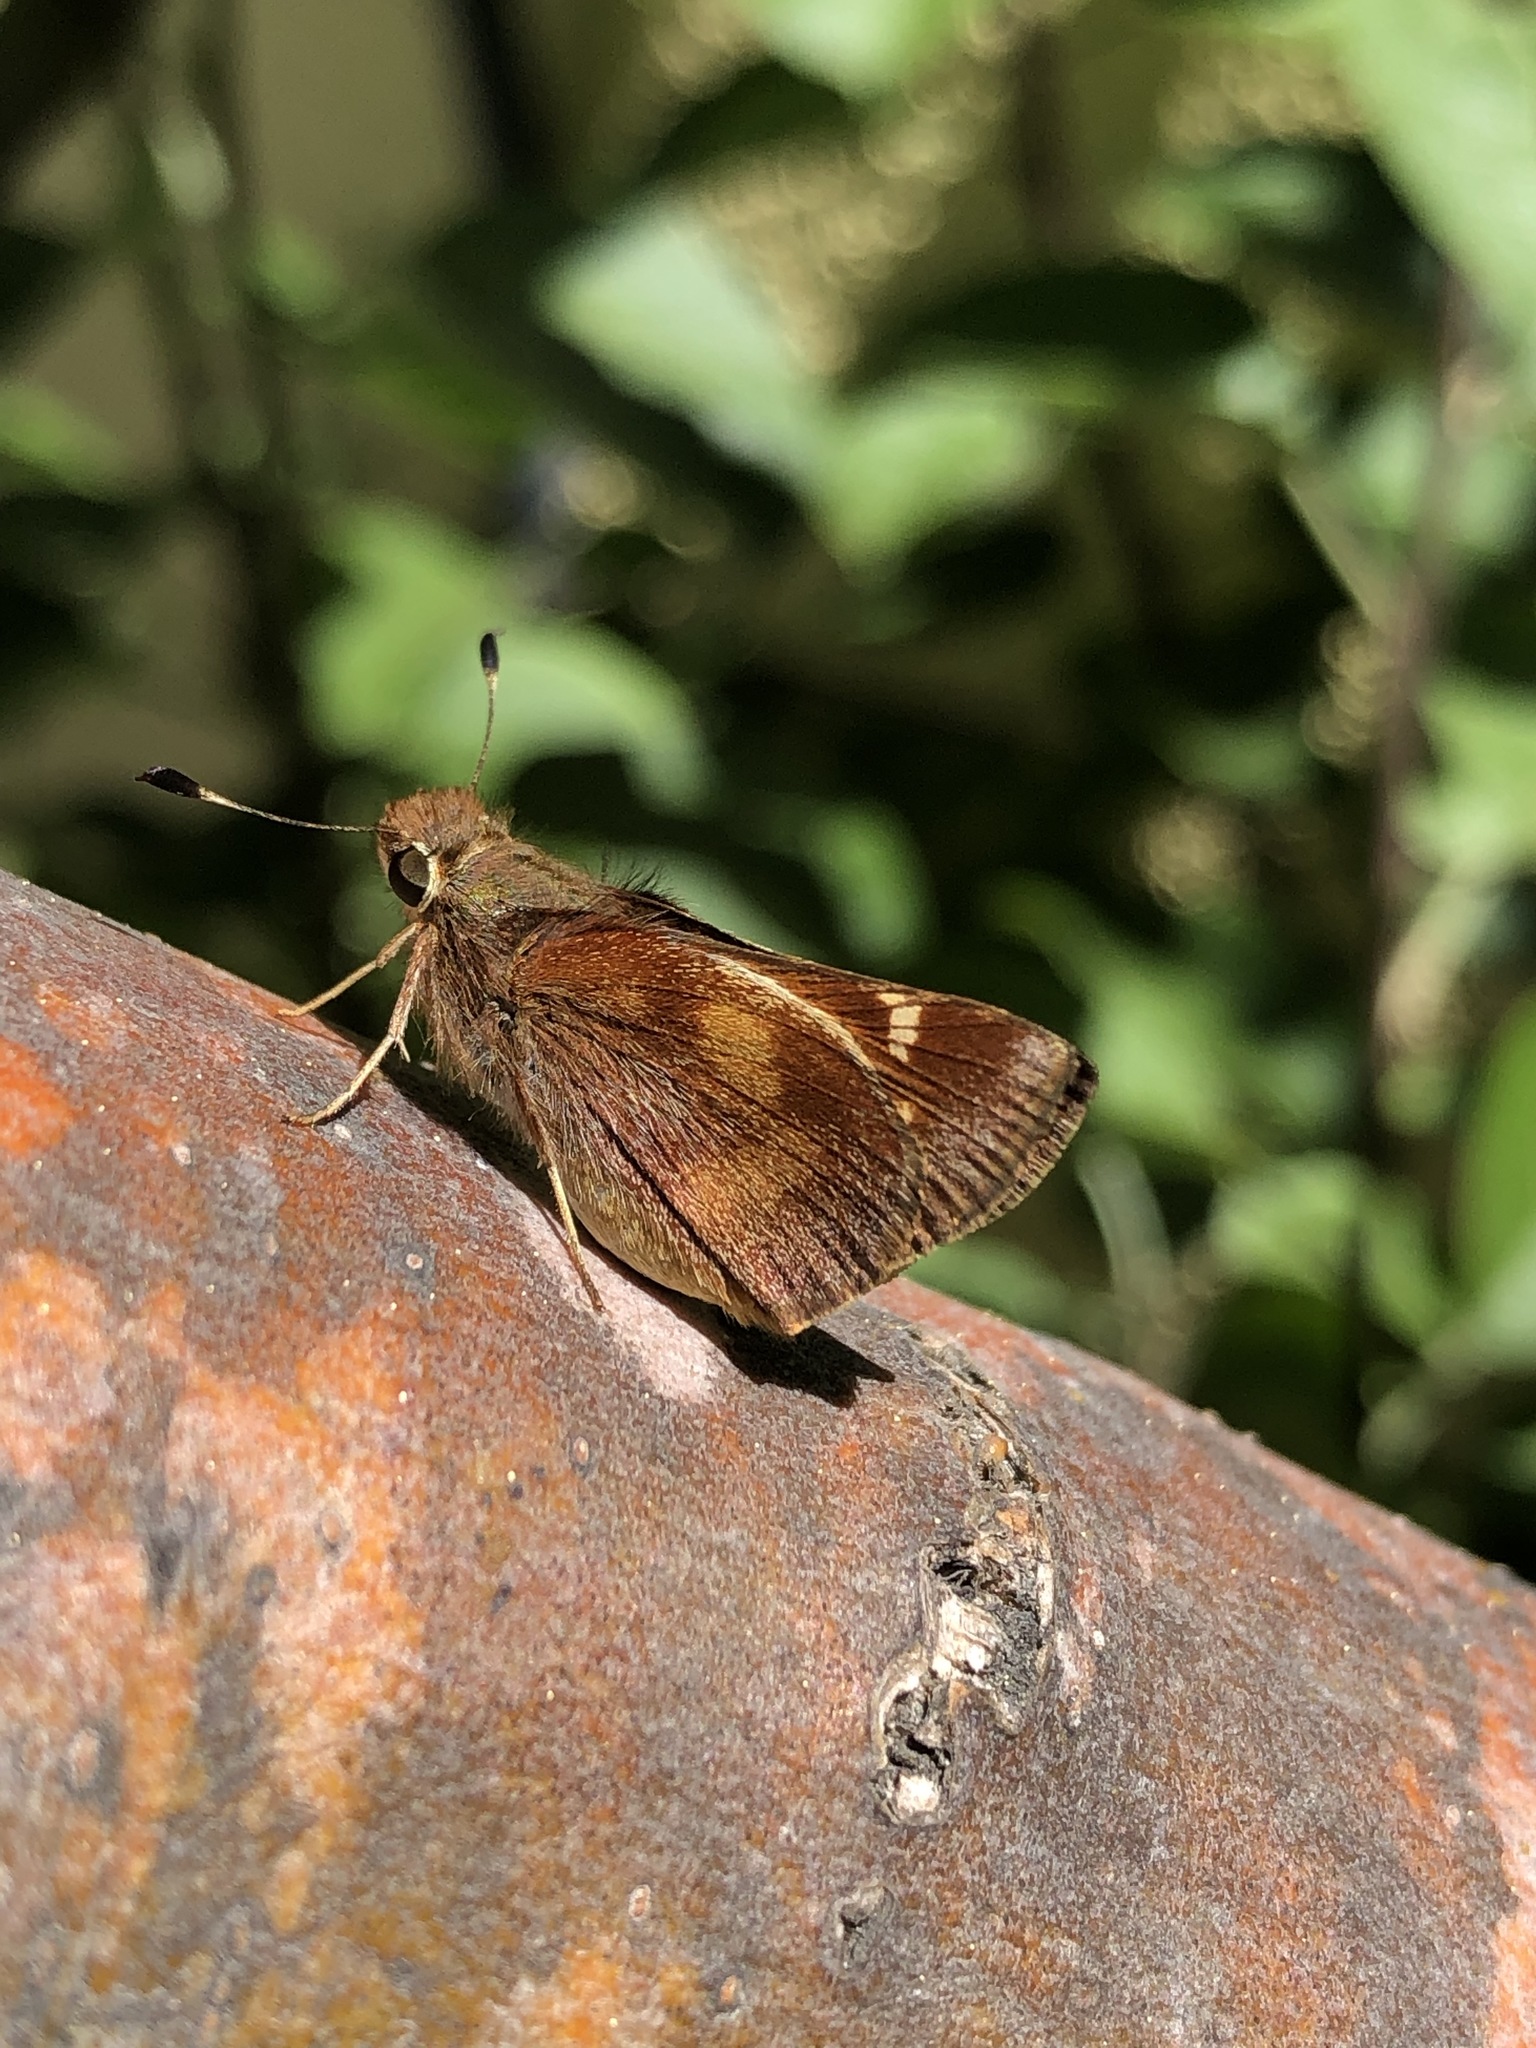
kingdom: Animalia
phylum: Arthropoda
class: Insecta
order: Lepidoptera
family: Hesperiidae
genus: Lon
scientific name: Lon melane
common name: Umber skipper
